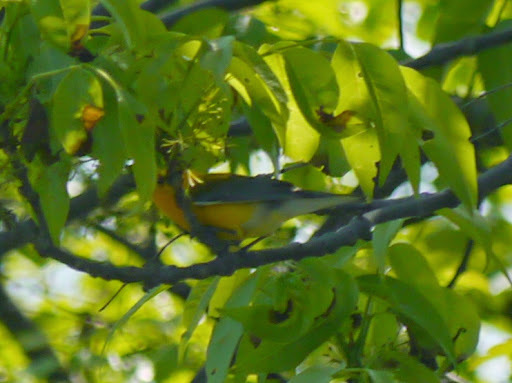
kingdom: Animalia
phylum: Chordata
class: Aves
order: Passeriformes
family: Parulidae
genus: Protonotaria
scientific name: Protonotaria citrea
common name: Prothonotary warbler
